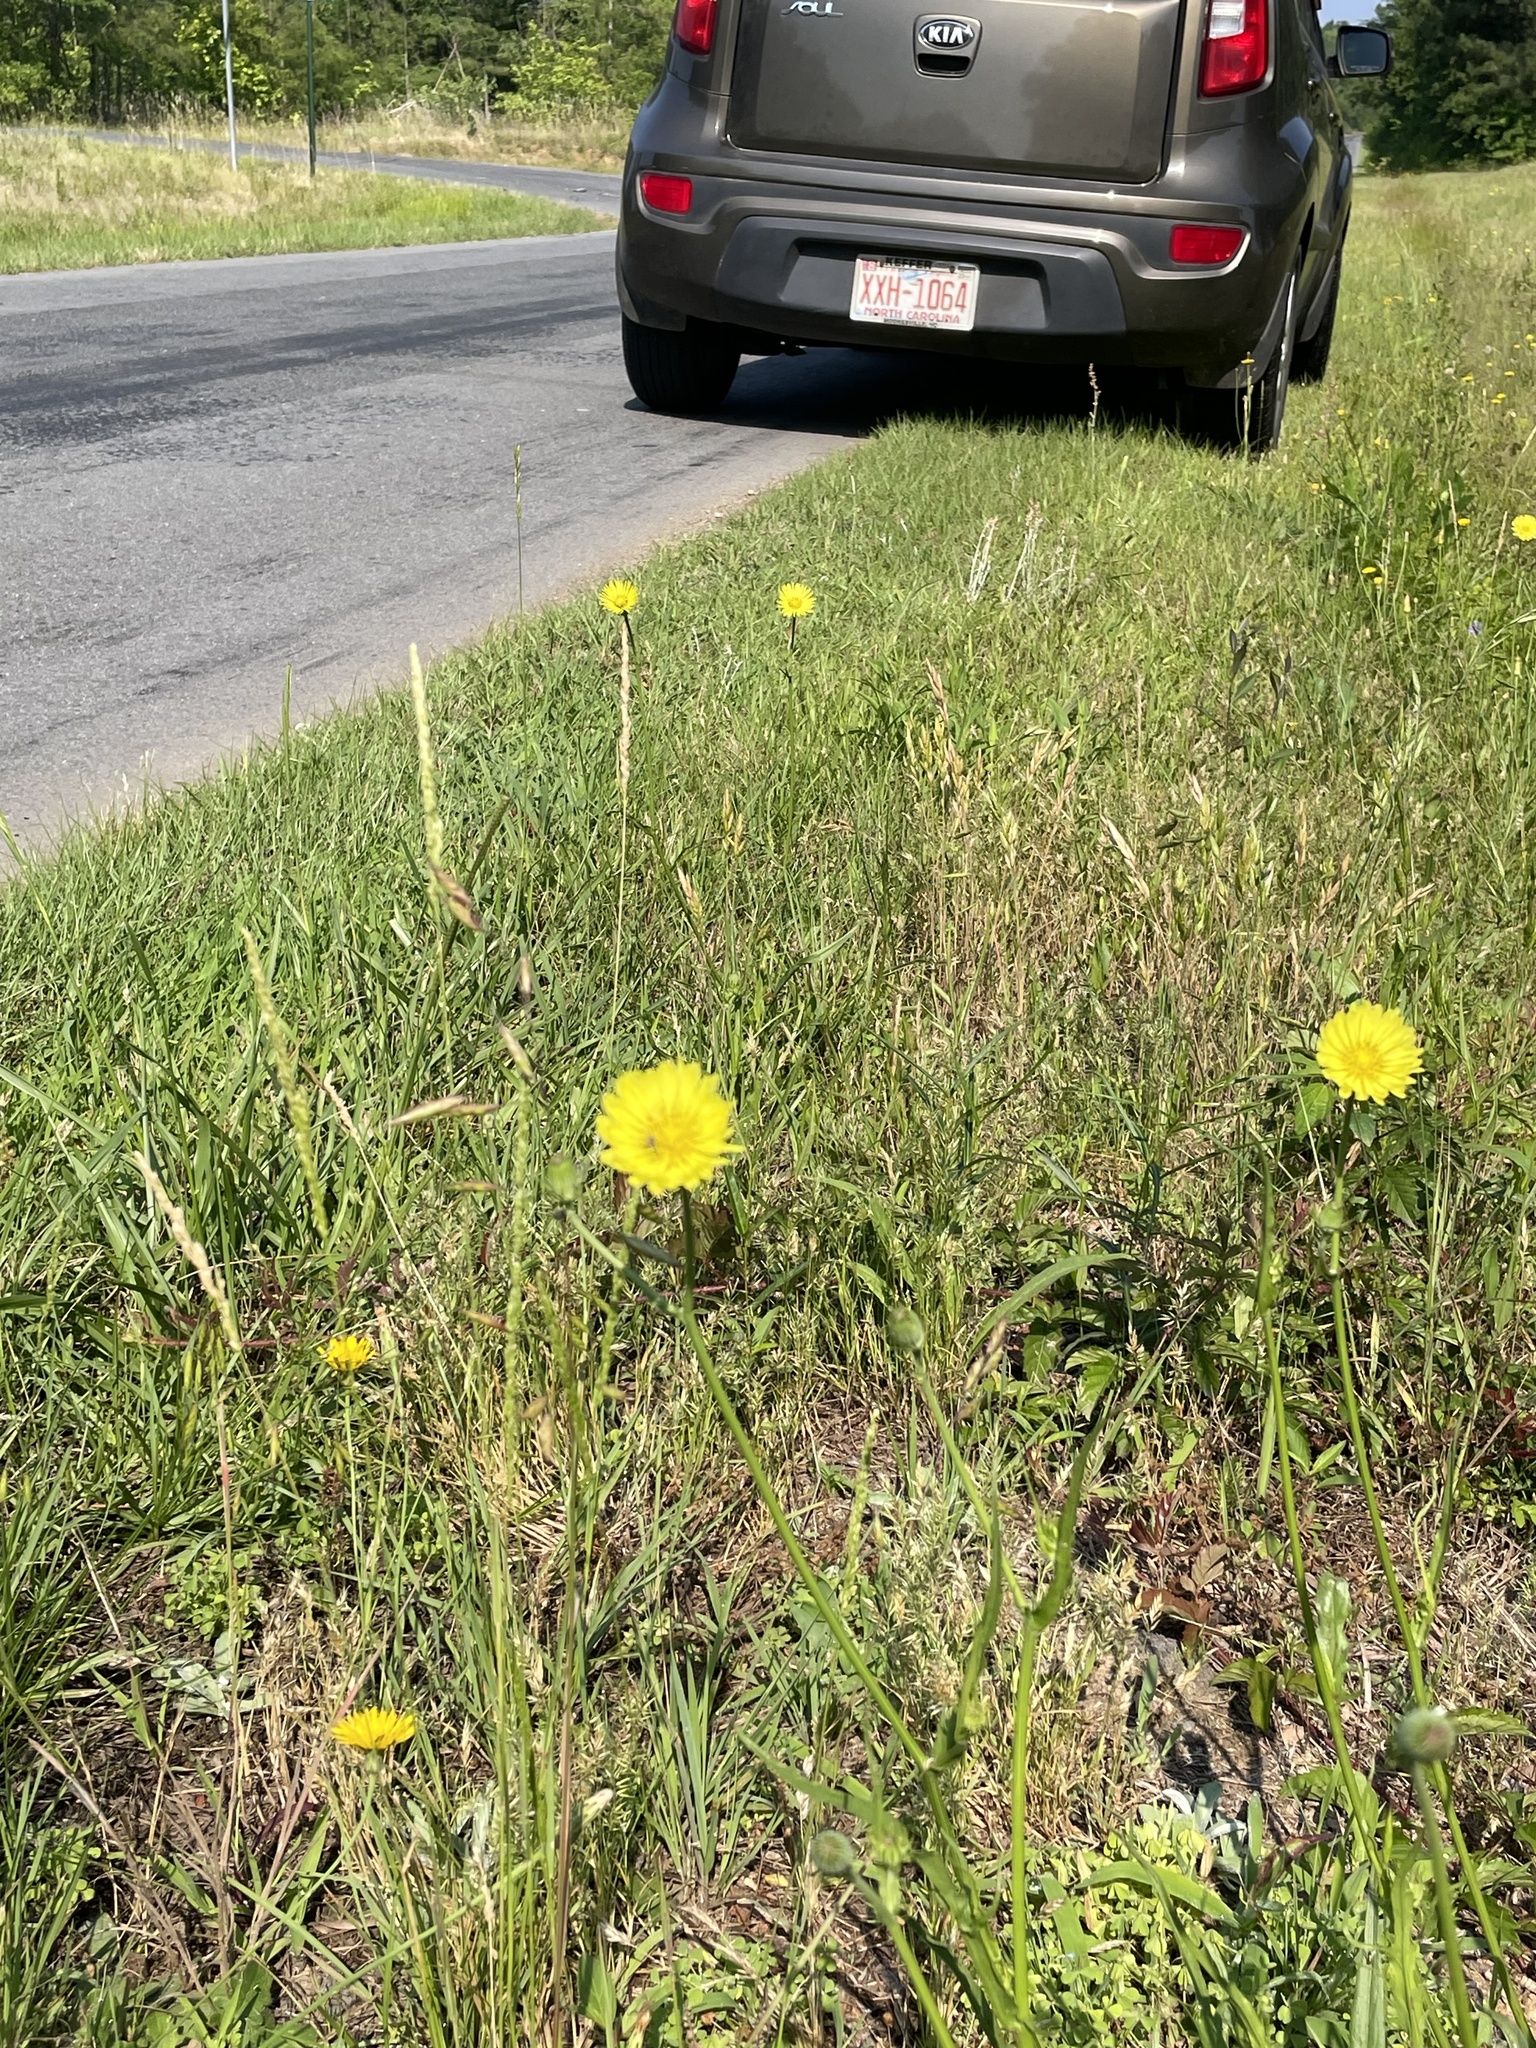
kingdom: Plantae
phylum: Tracheophyta
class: Magnoliopsida
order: Asterales
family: Asteraceae
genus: Pyrrhopappus
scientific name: Pyrrhopappus carolinianus
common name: Carolina desert-chicory
